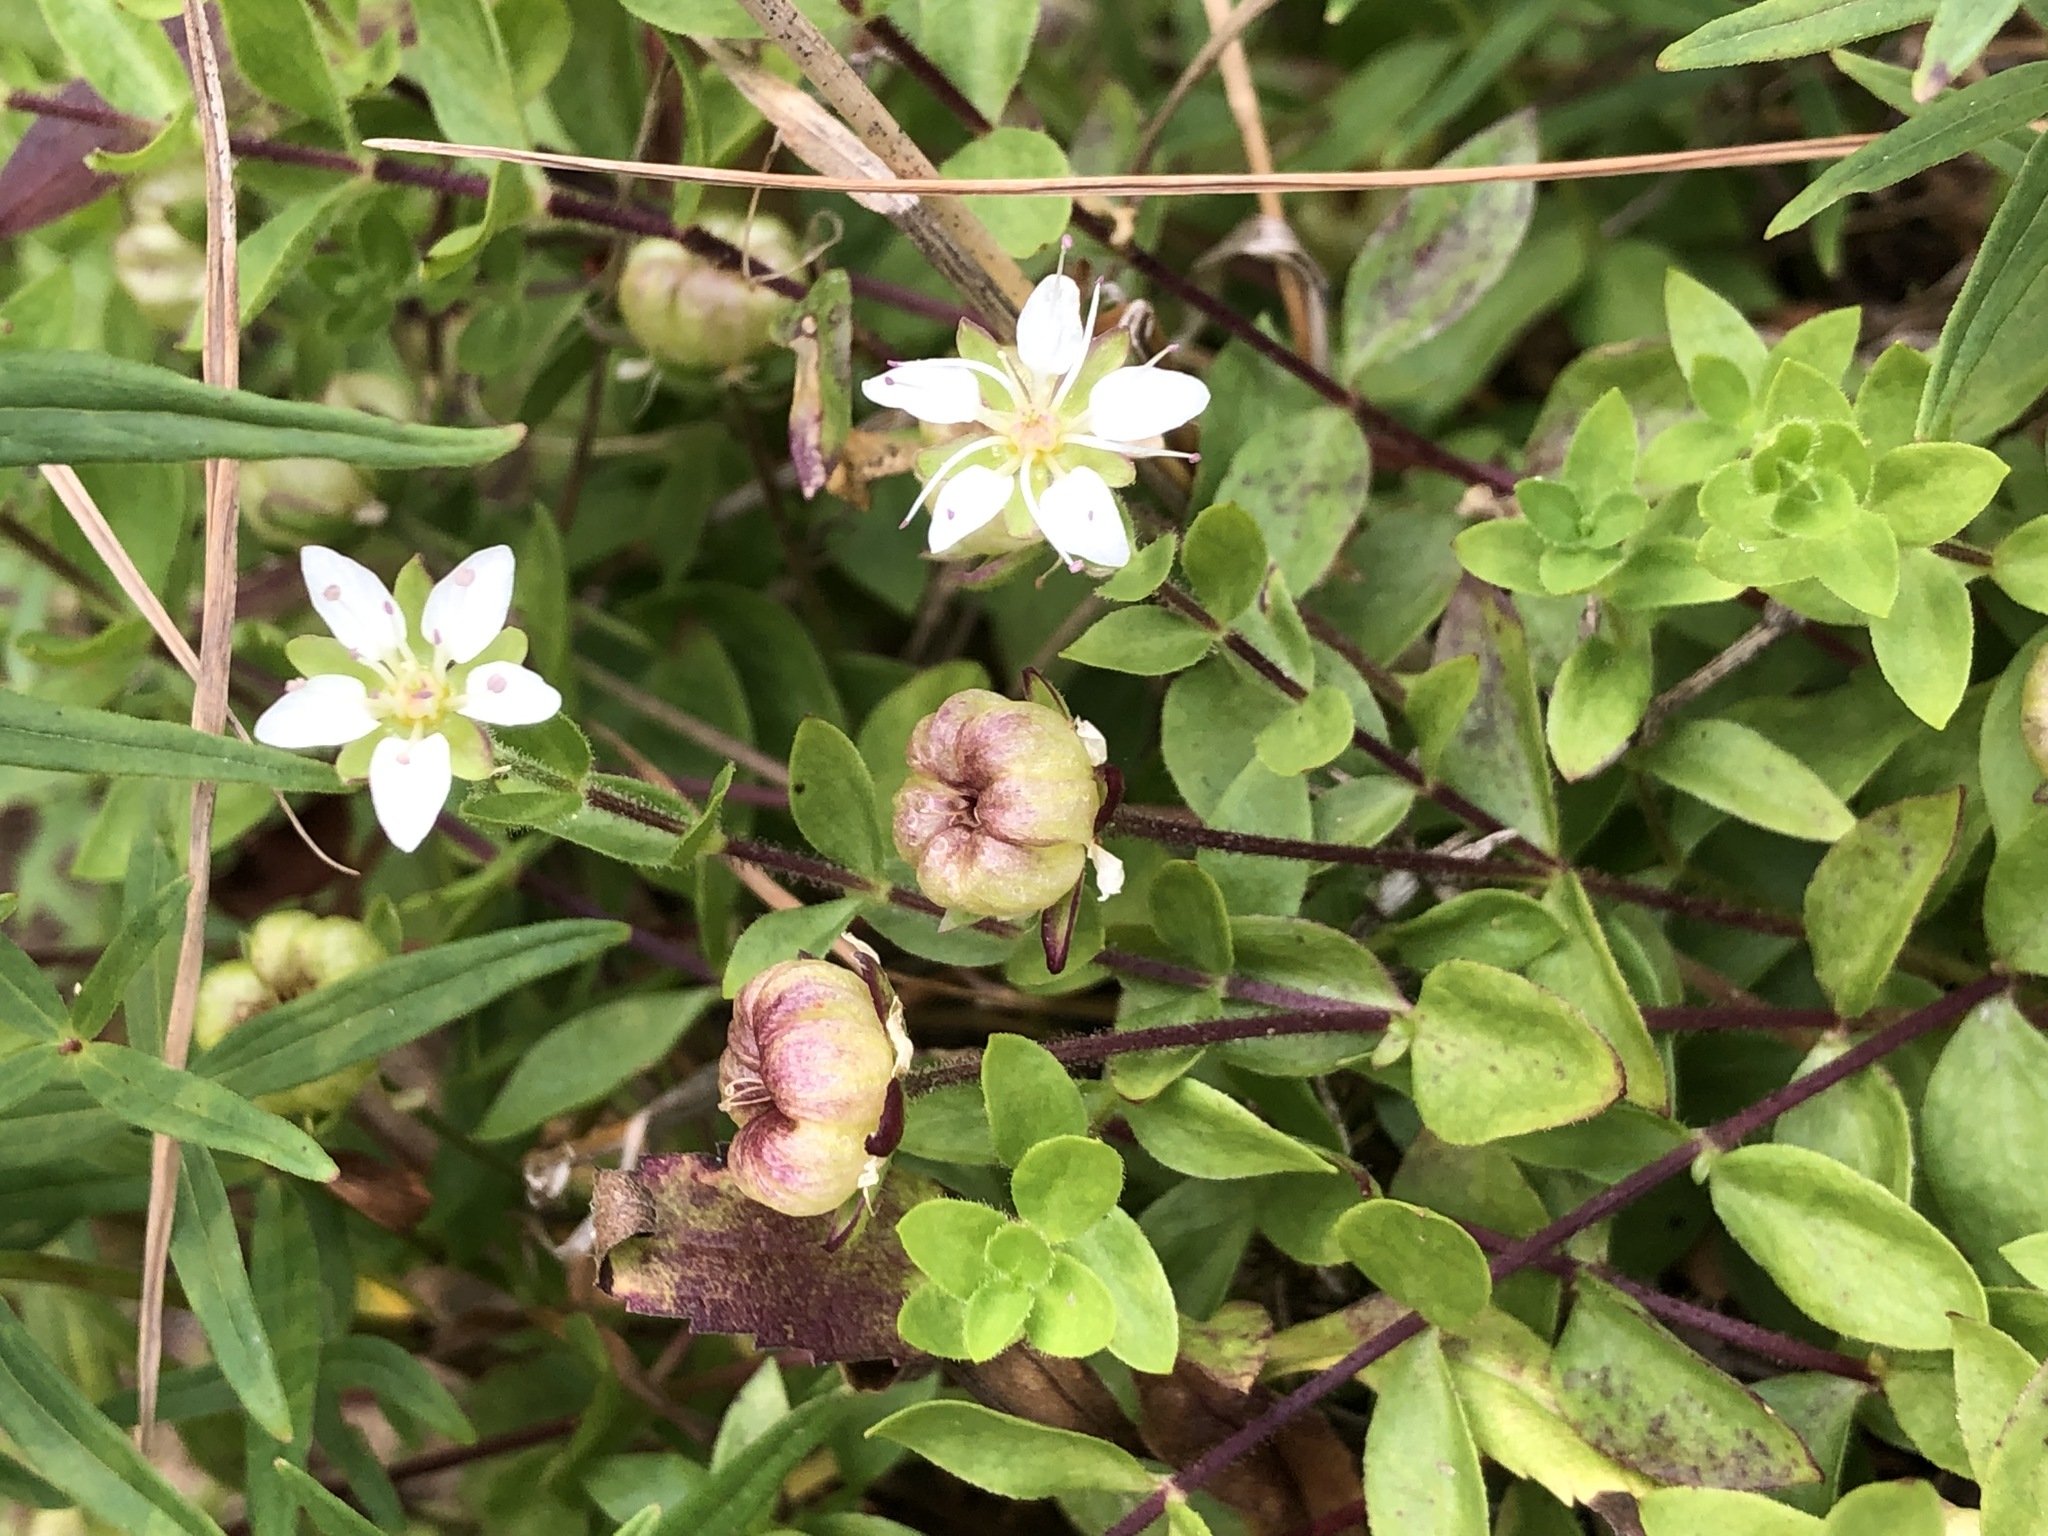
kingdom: Plantae
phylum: Tracheophyta
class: Magnoliopsida
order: Caryophyllales
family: Caryophyllaceae
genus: Wilhelmsia
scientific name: Wilhelmsia physodes
